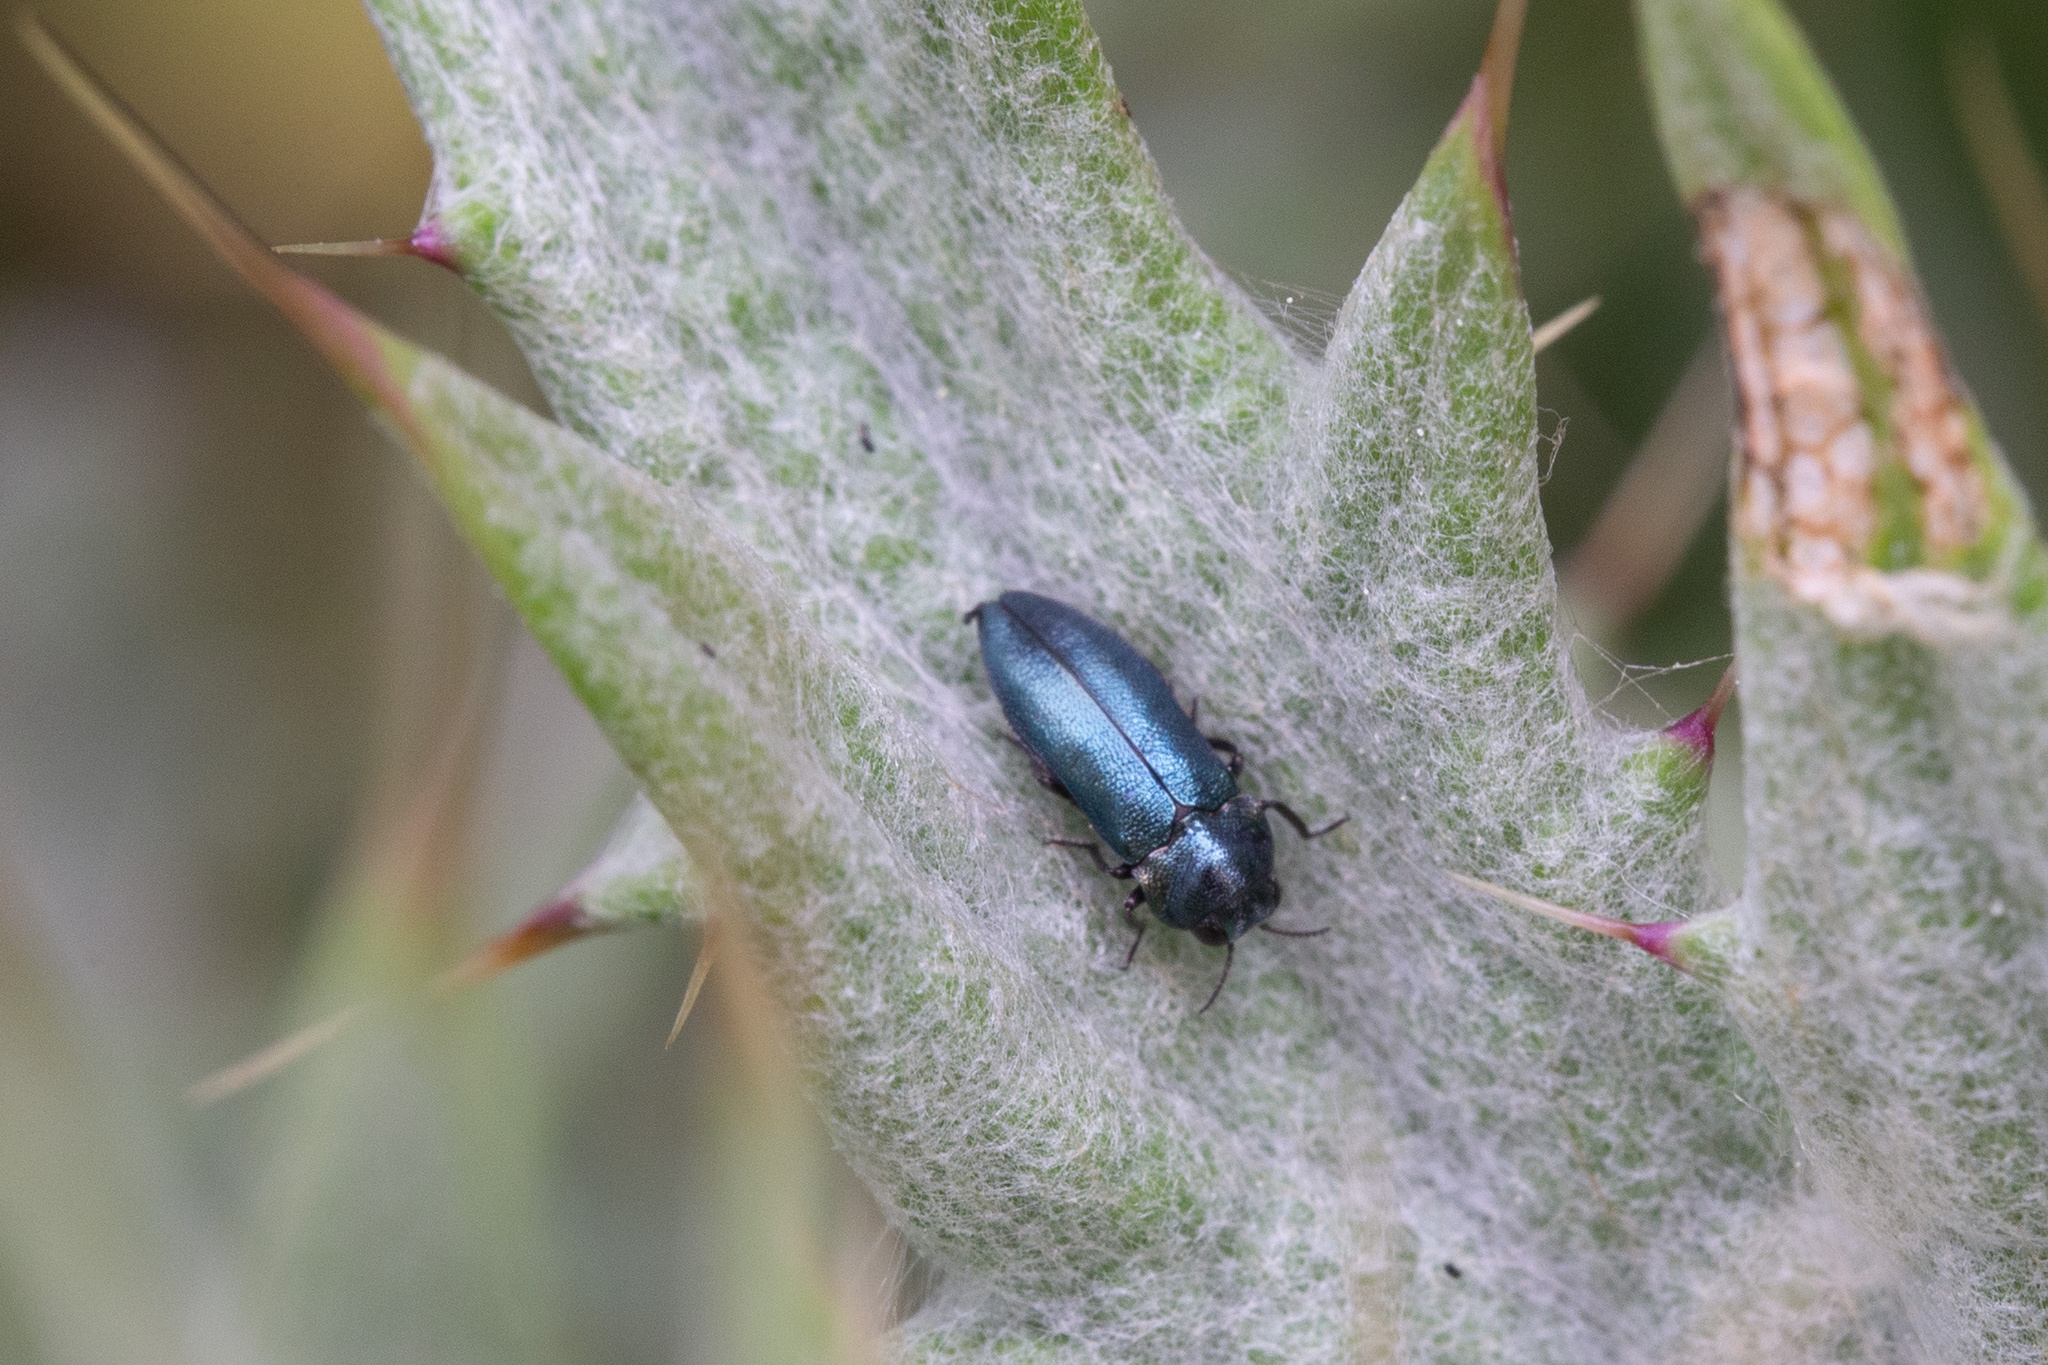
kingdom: Animalia
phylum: Arthropoda
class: Insecta
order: Coleoptera
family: Buprestidae
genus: Meliboeus
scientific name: Meliboeus parvulus
